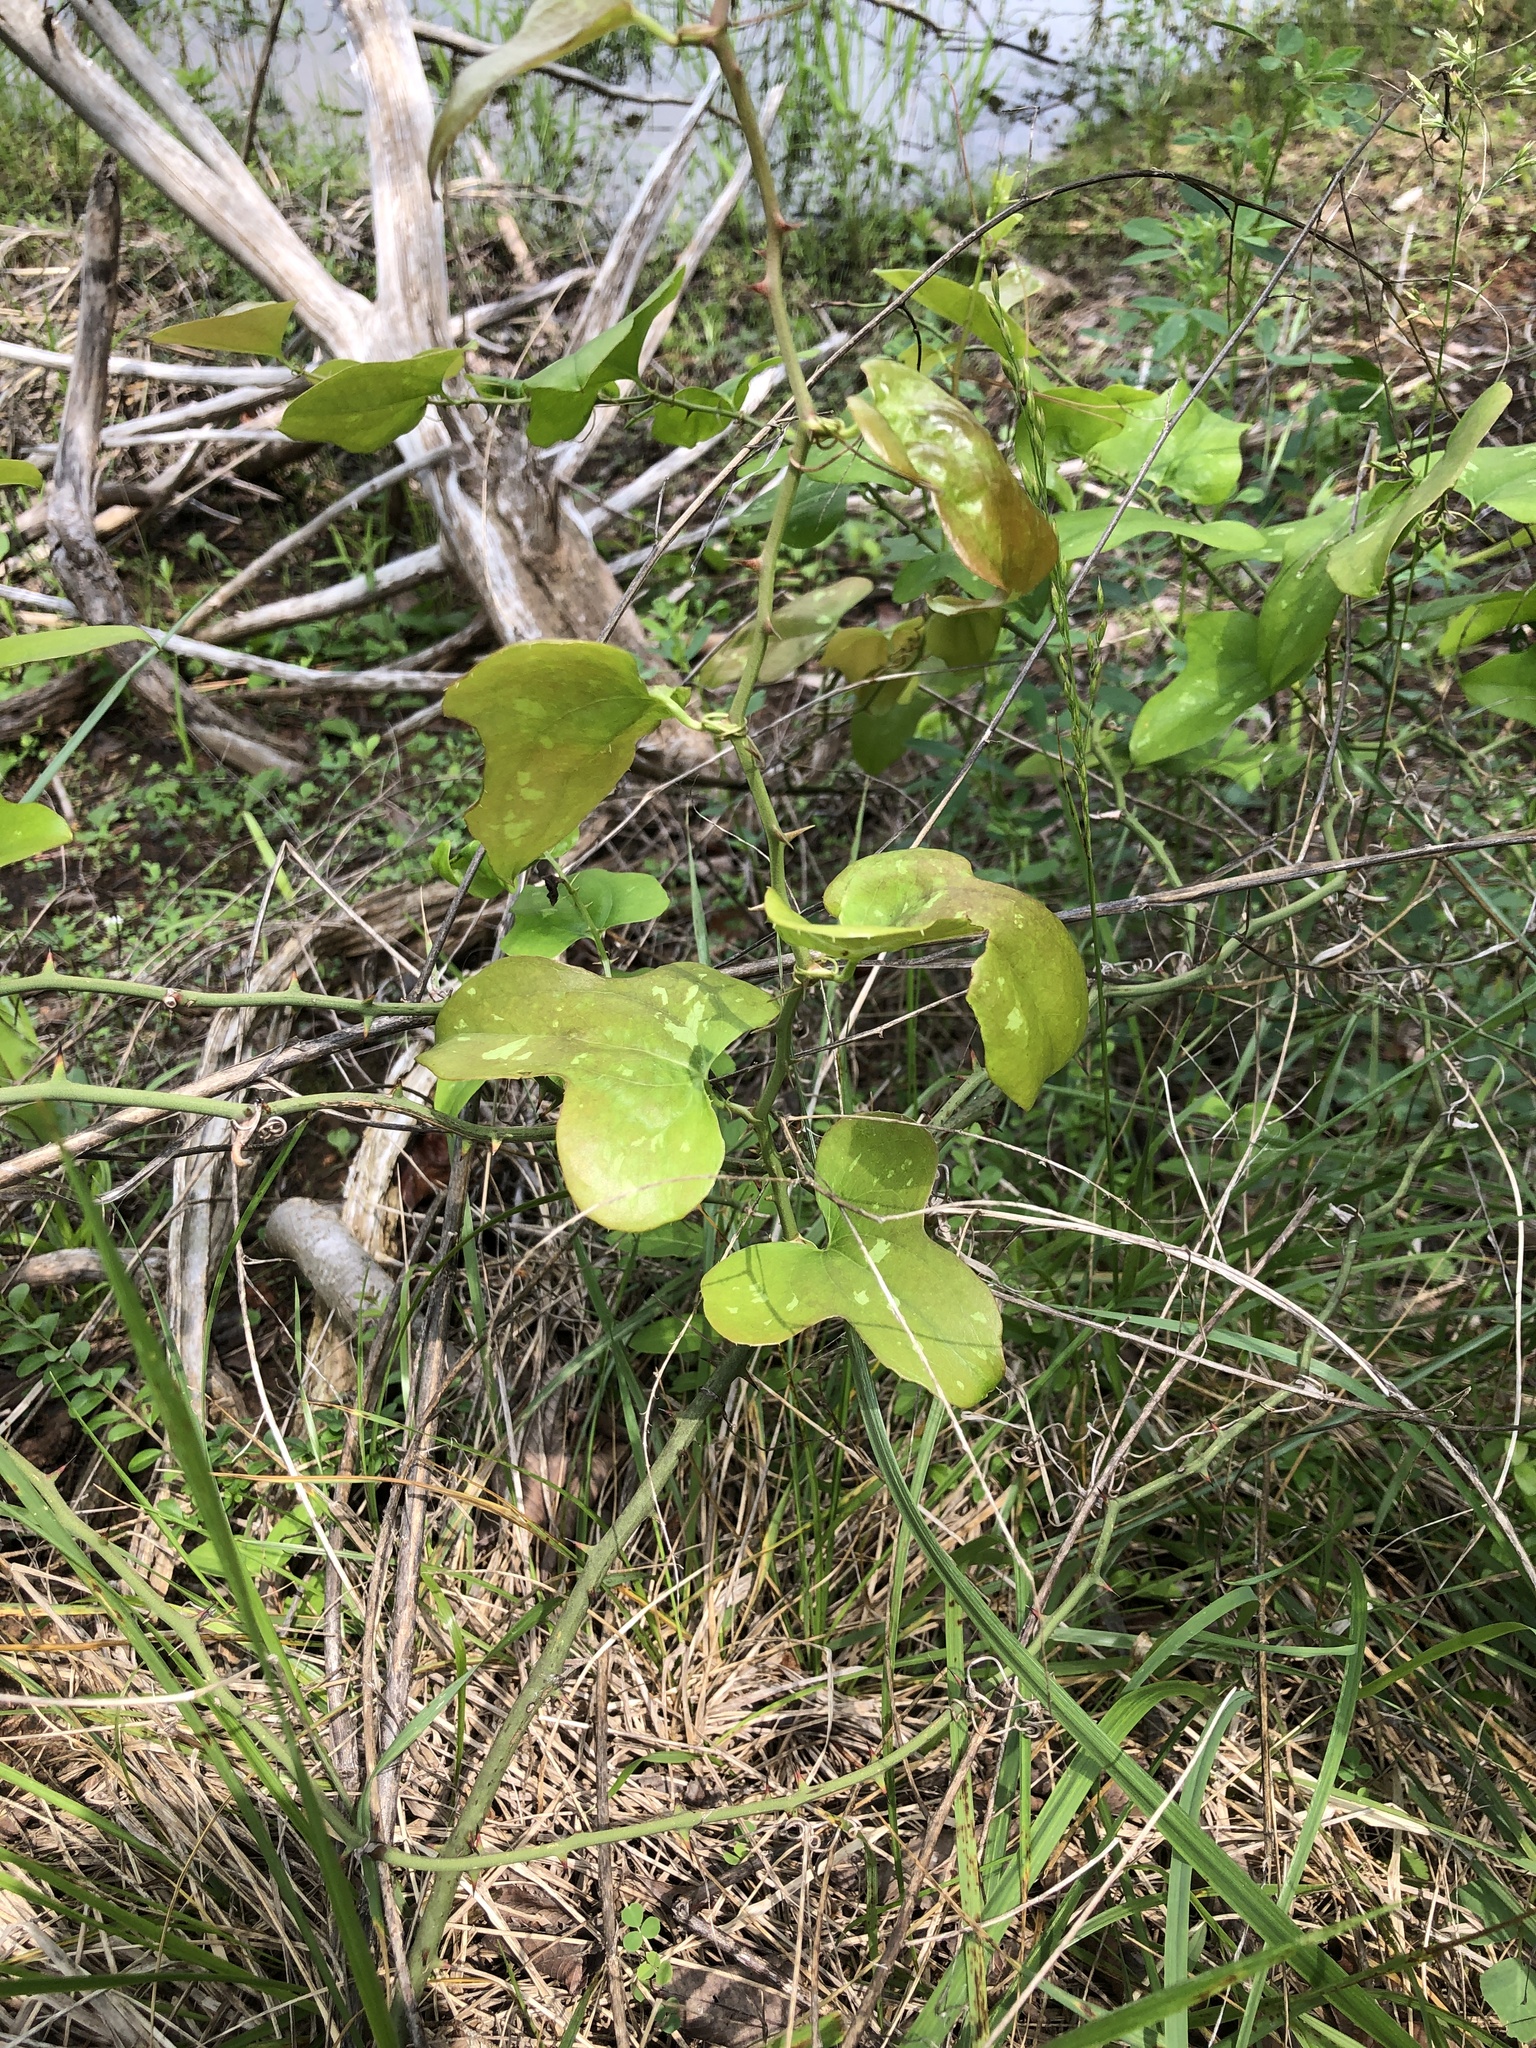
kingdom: Plantae
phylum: Tracheophyta
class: Liliopsida
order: Liliales
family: Smilacaceae
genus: Smilax
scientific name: Smilax bona-nox
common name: Catbrier
